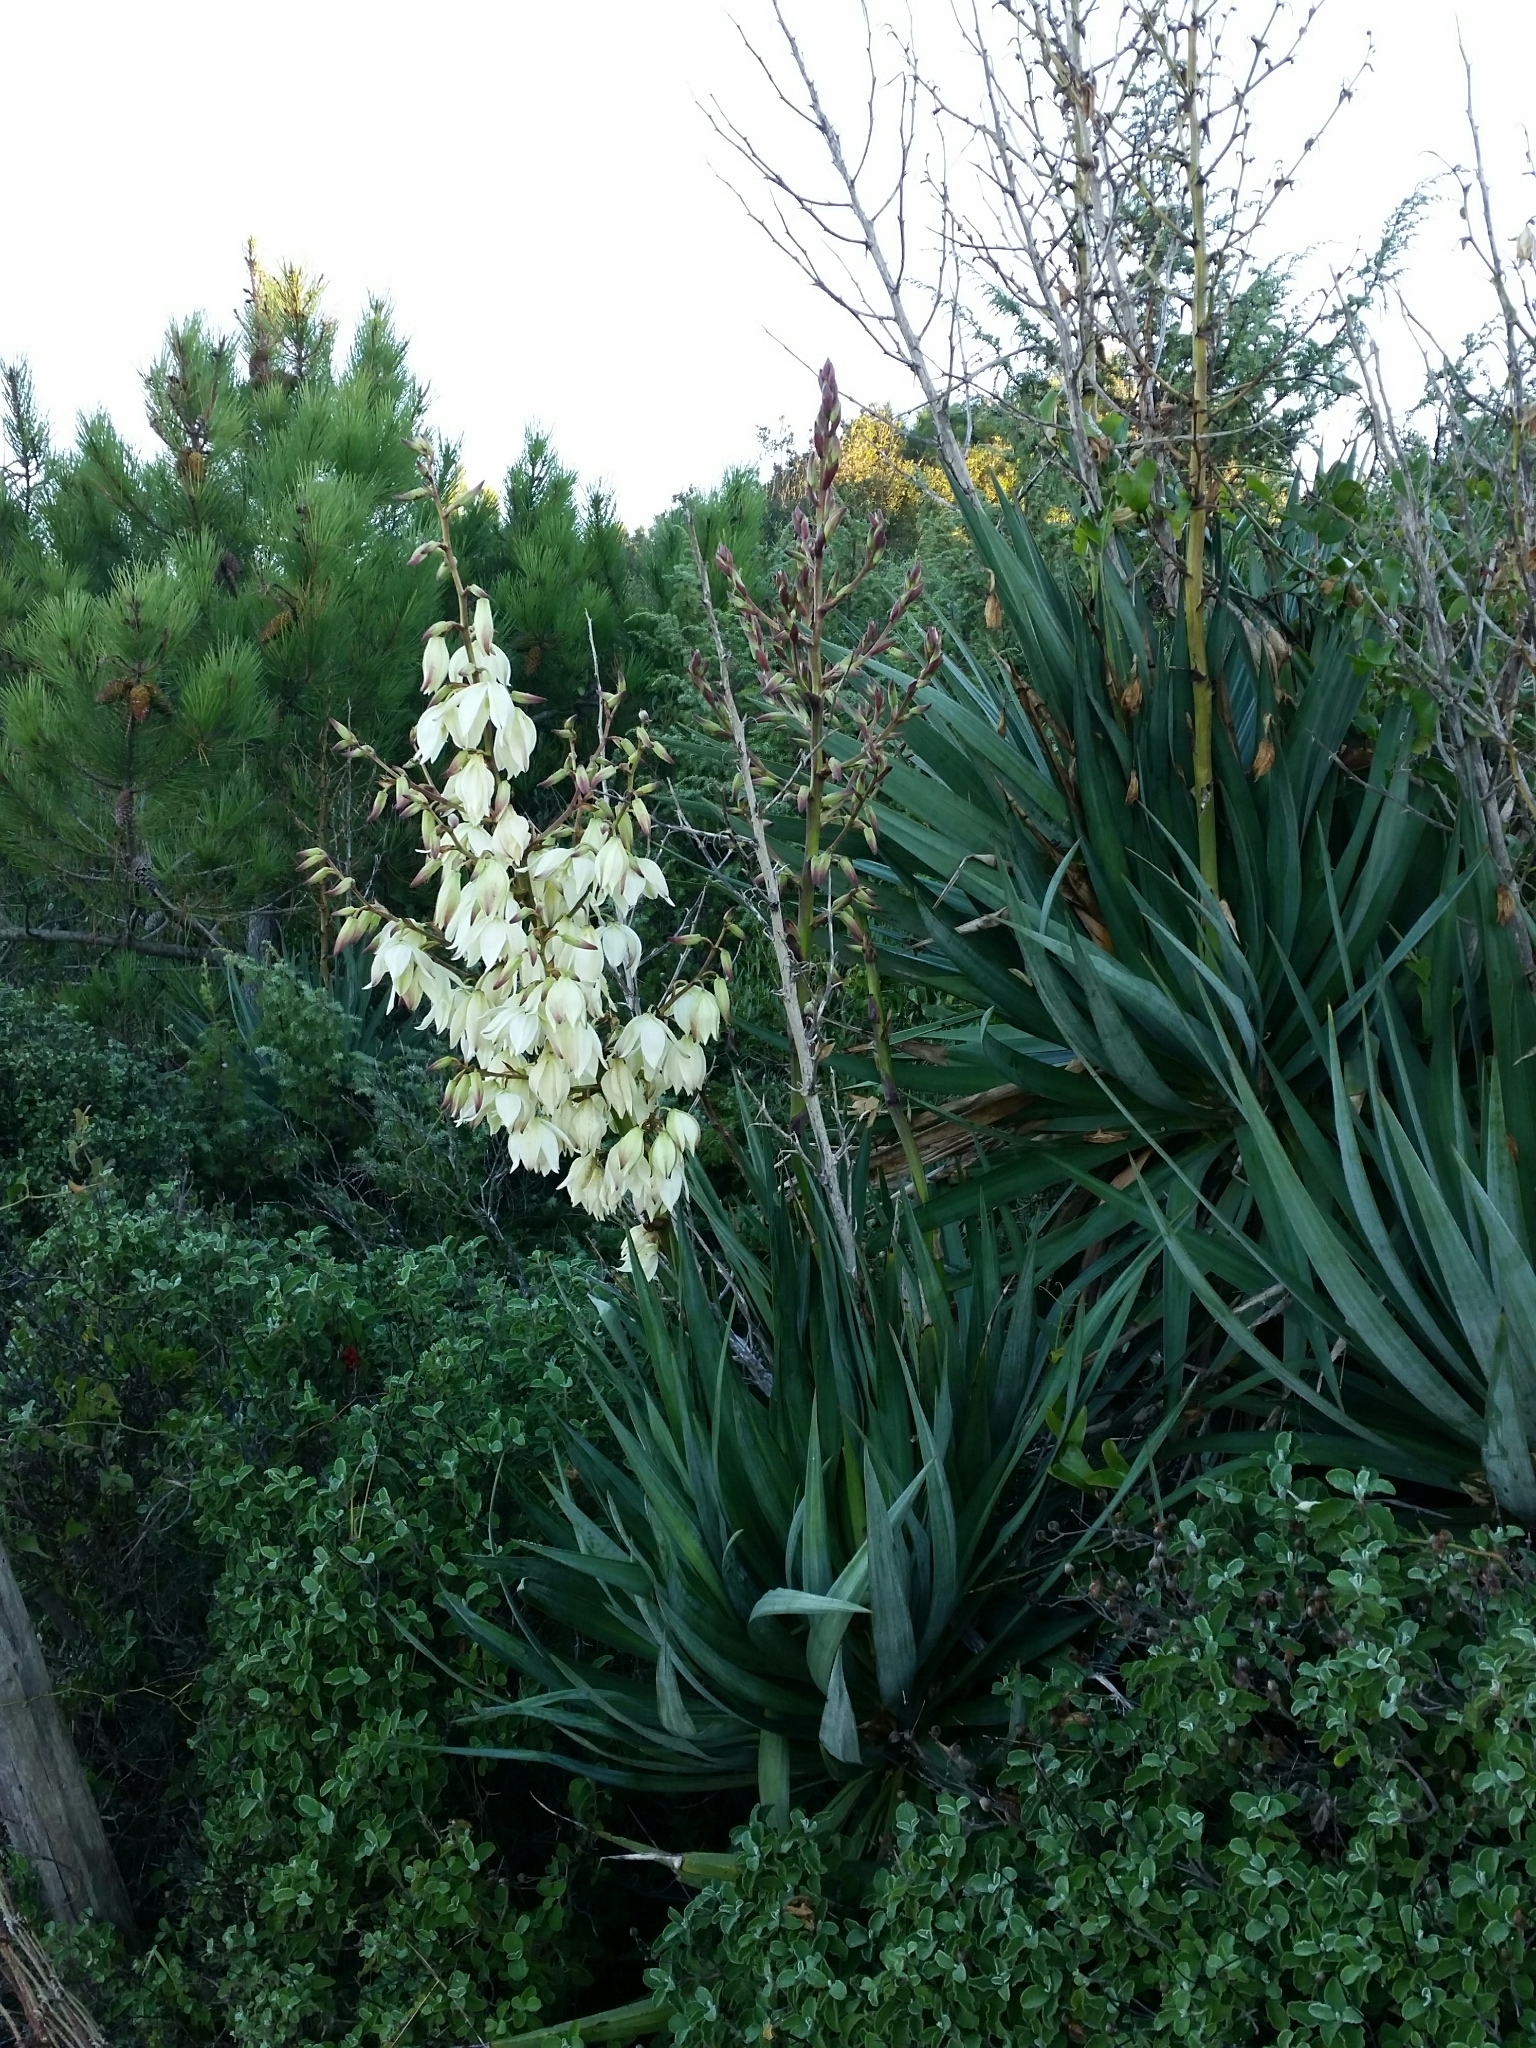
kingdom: Plantae
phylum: Tracheophyta
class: Liliopsida
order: Asparagales
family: Asparagaceae
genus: Yucca
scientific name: Yucca gloriosa
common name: Spanish-dagger
